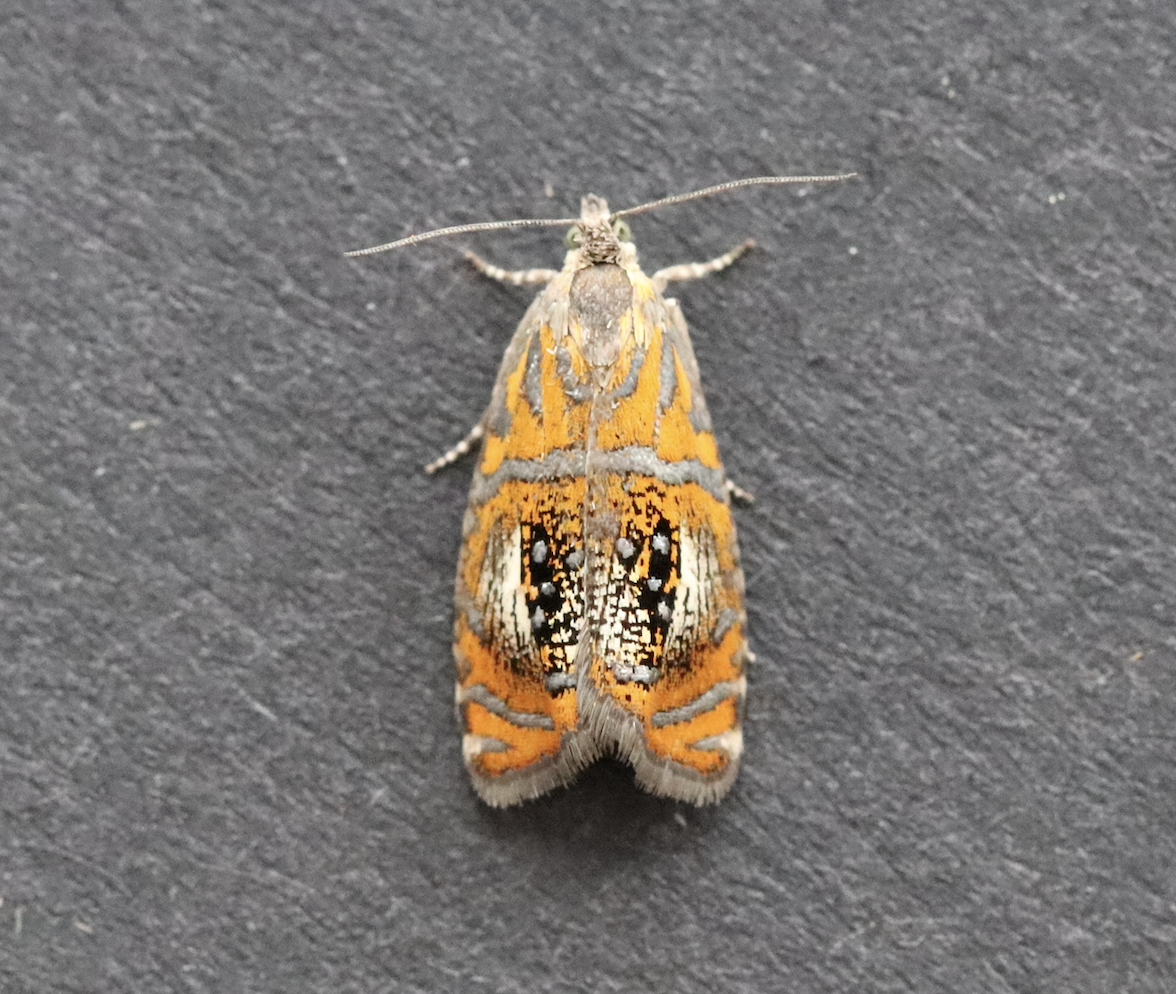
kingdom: Animalia
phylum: Arthropoda
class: Insecta
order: Lepidoptera
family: Tortricidae
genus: Olethreutes
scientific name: Olethreutes arcuella
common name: Arched marble
